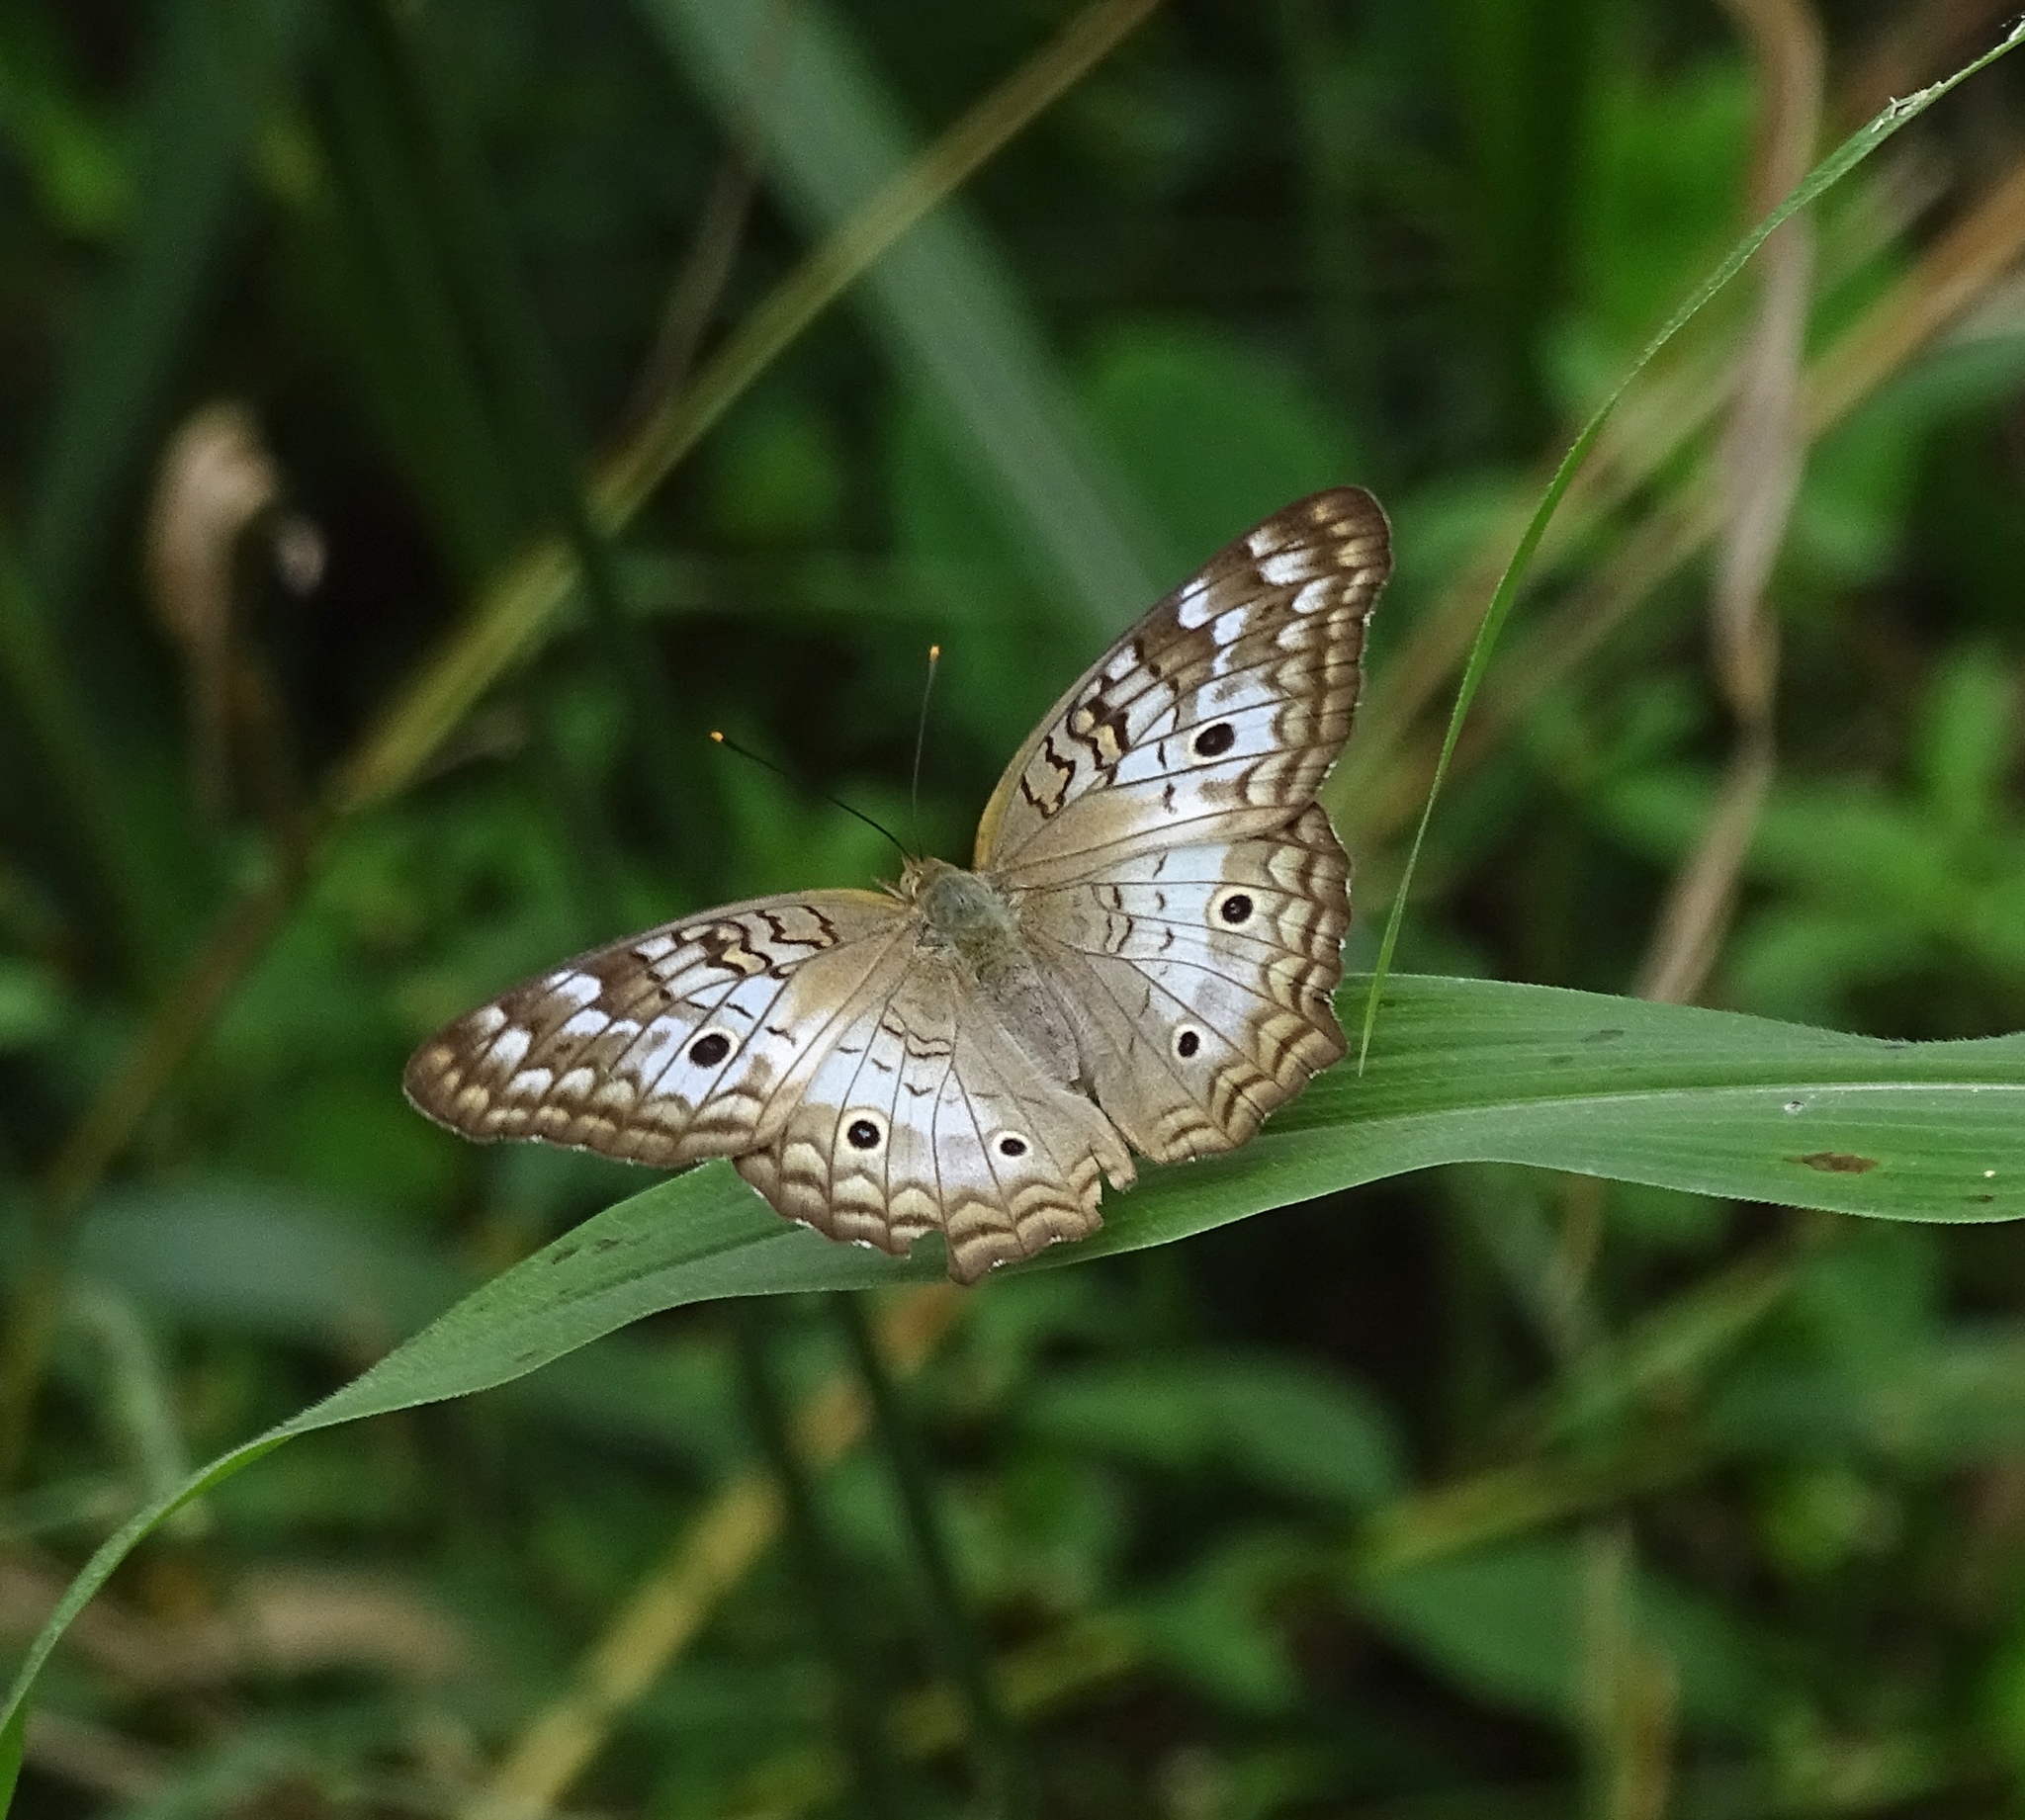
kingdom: Animalia
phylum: Arthropoda
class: Insecta
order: Lepidoptera
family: Nymphalidae
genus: Anartia
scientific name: Anartia jatrophae
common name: White peacock
